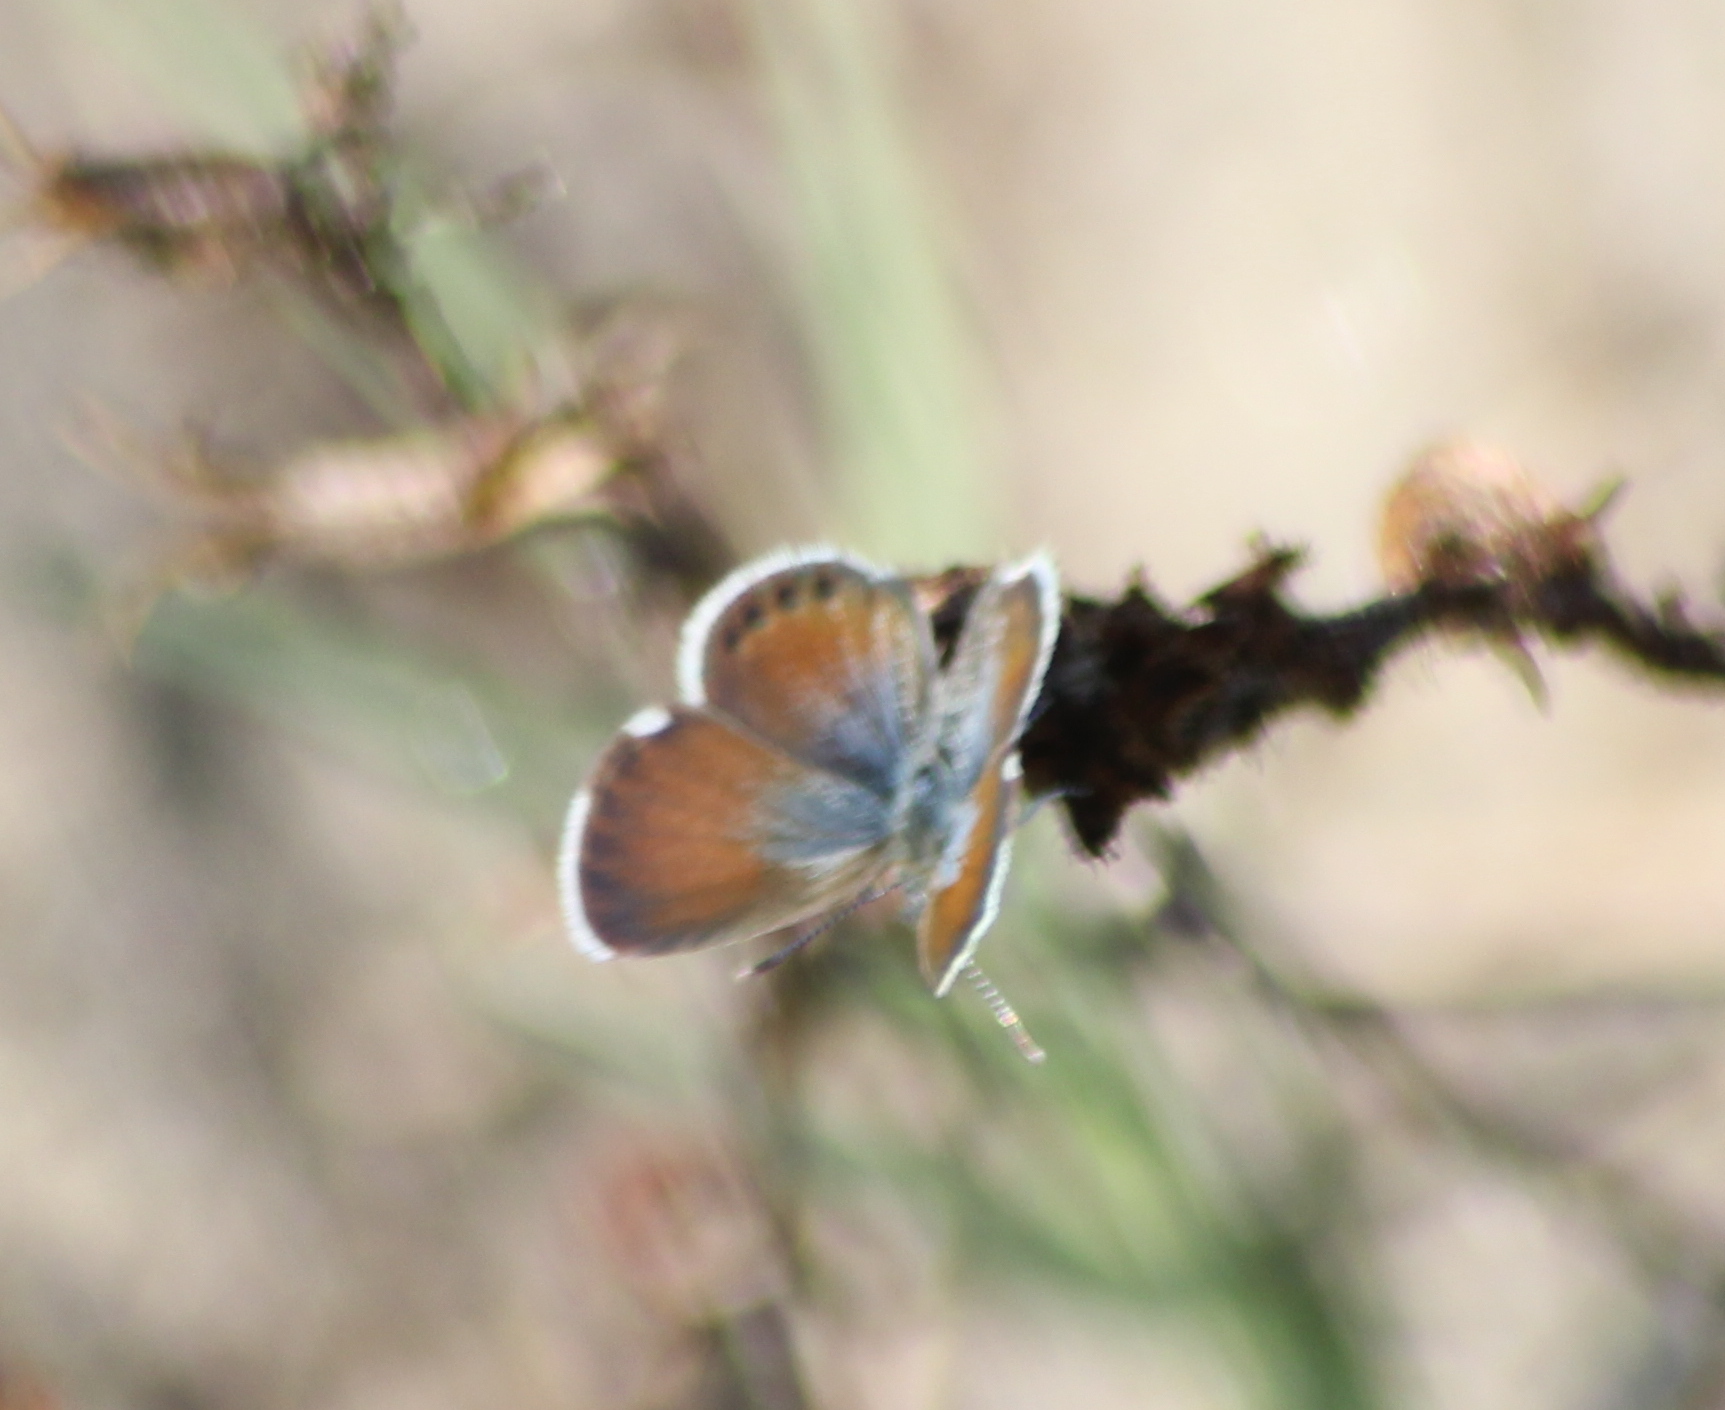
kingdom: Animalia
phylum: Arthropoda
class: Insecta
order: Lepidoptera
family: Lycaenidae
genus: Brephidium
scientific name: Brephidium exilis
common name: Pygmy blue
